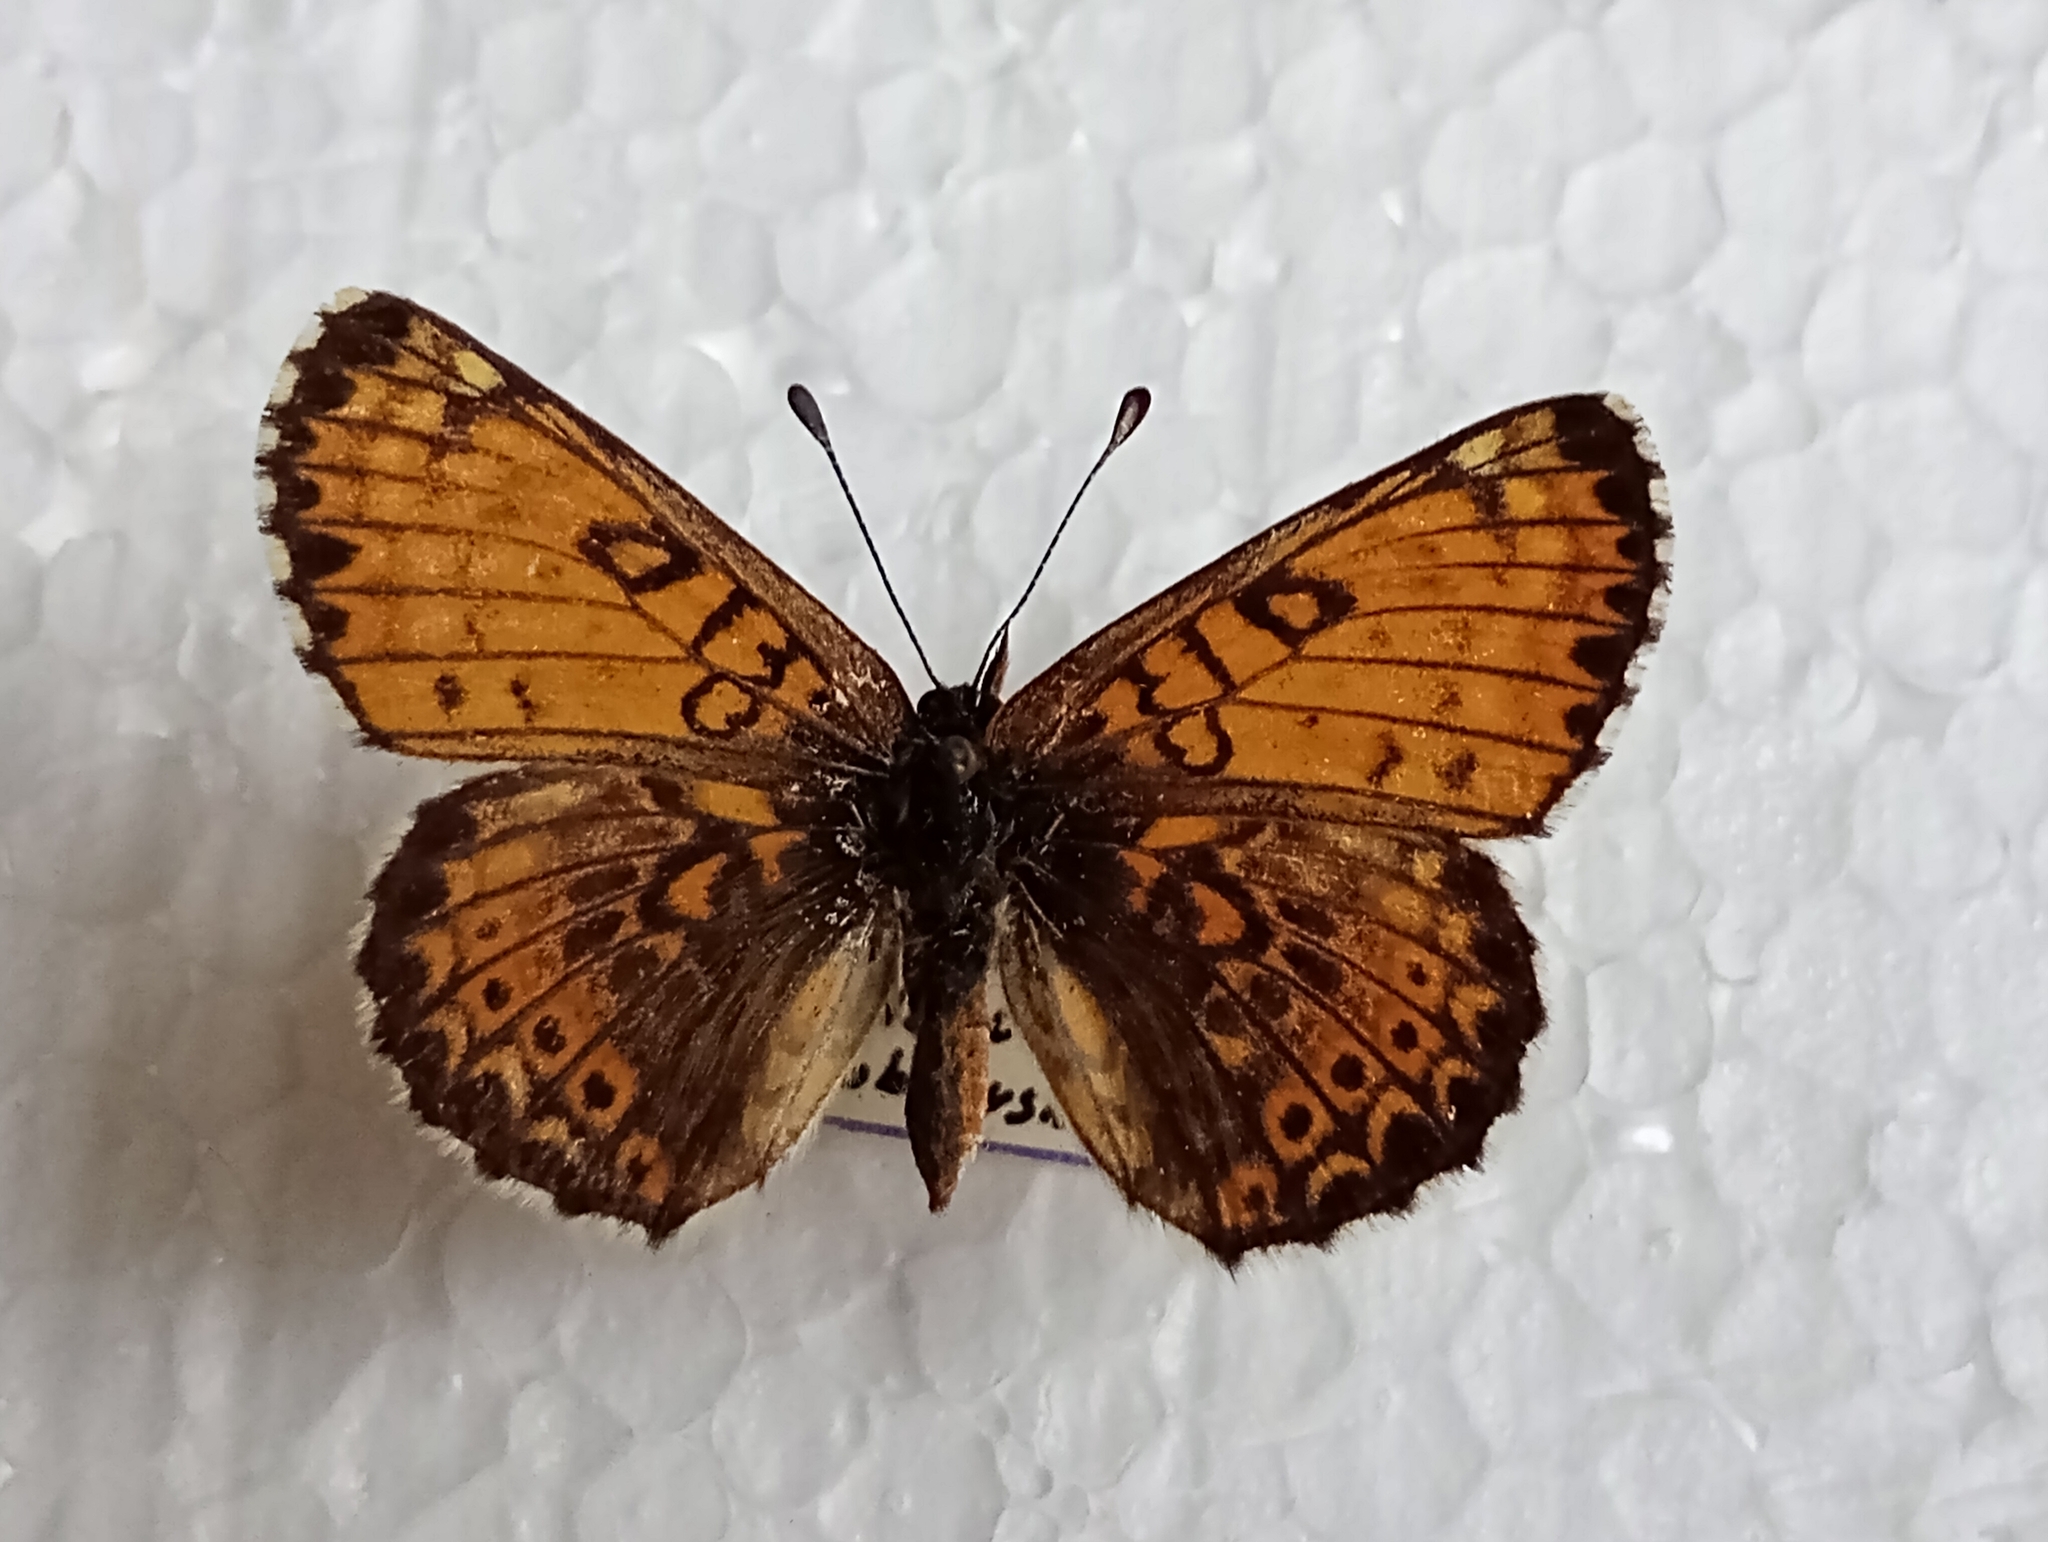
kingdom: Animalia
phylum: Arthropoda
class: Insecta
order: Lepidoptera
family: Nymphalidae
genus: Melitaea
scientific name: Melitaea cinxia
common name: Glanville fritillary
